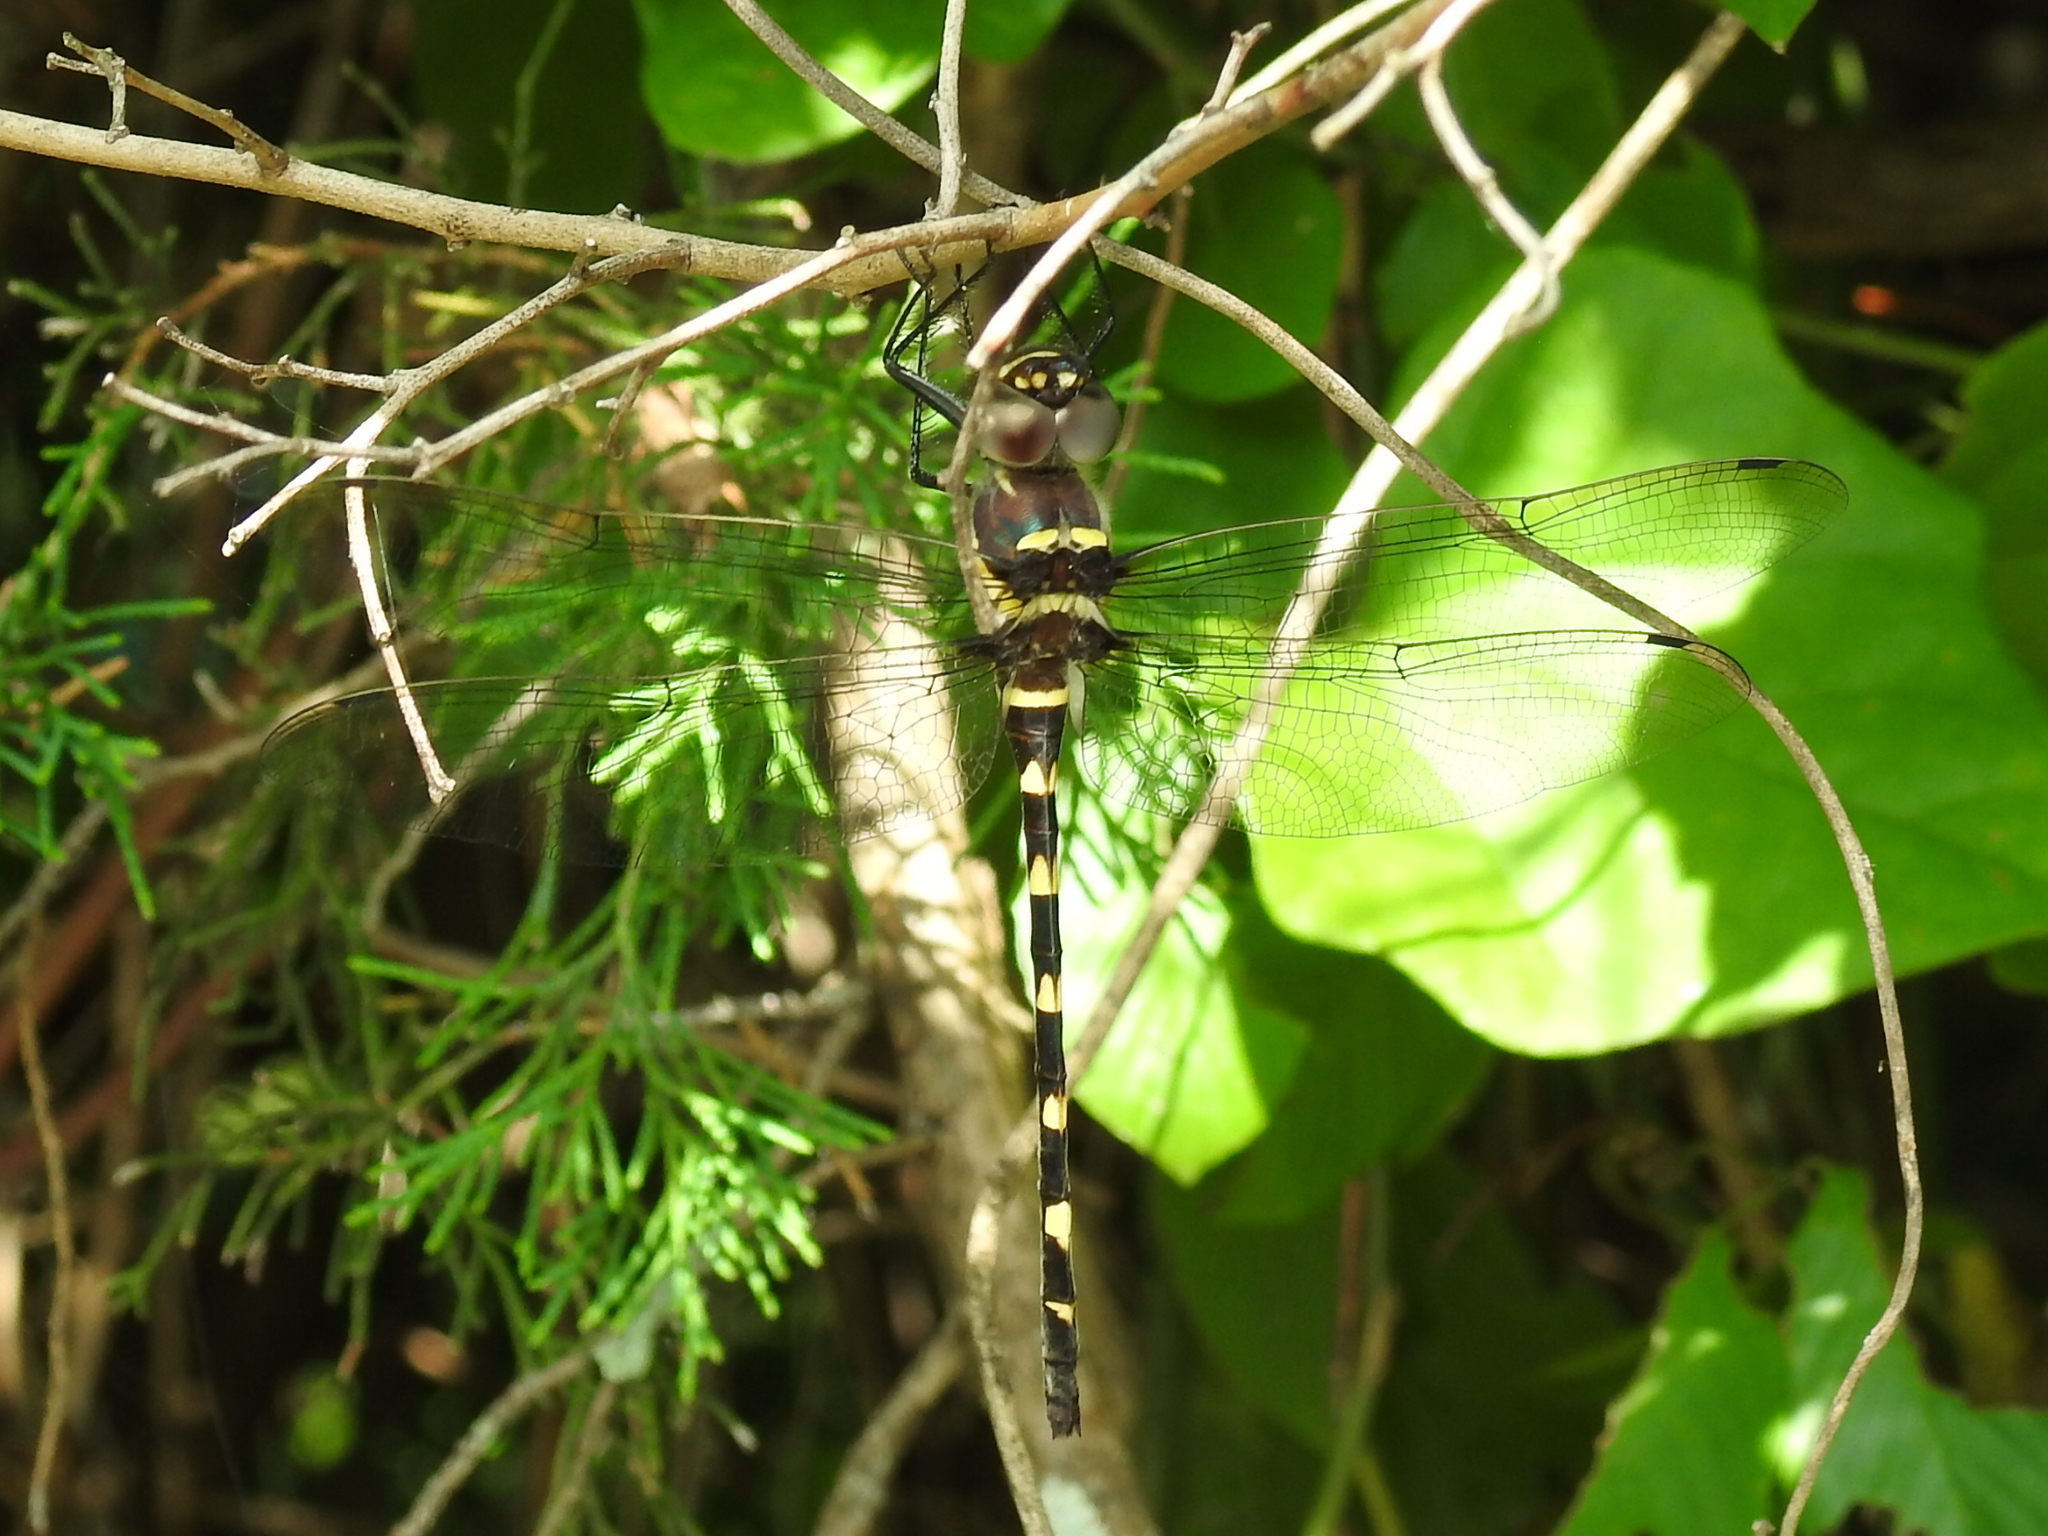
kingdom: Animalia
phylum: Arthropoda
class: Insecta
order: Odonata
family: Macromiidae
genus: Macromia
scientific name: Macromia illinoiensis
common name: Swift river cruiser
